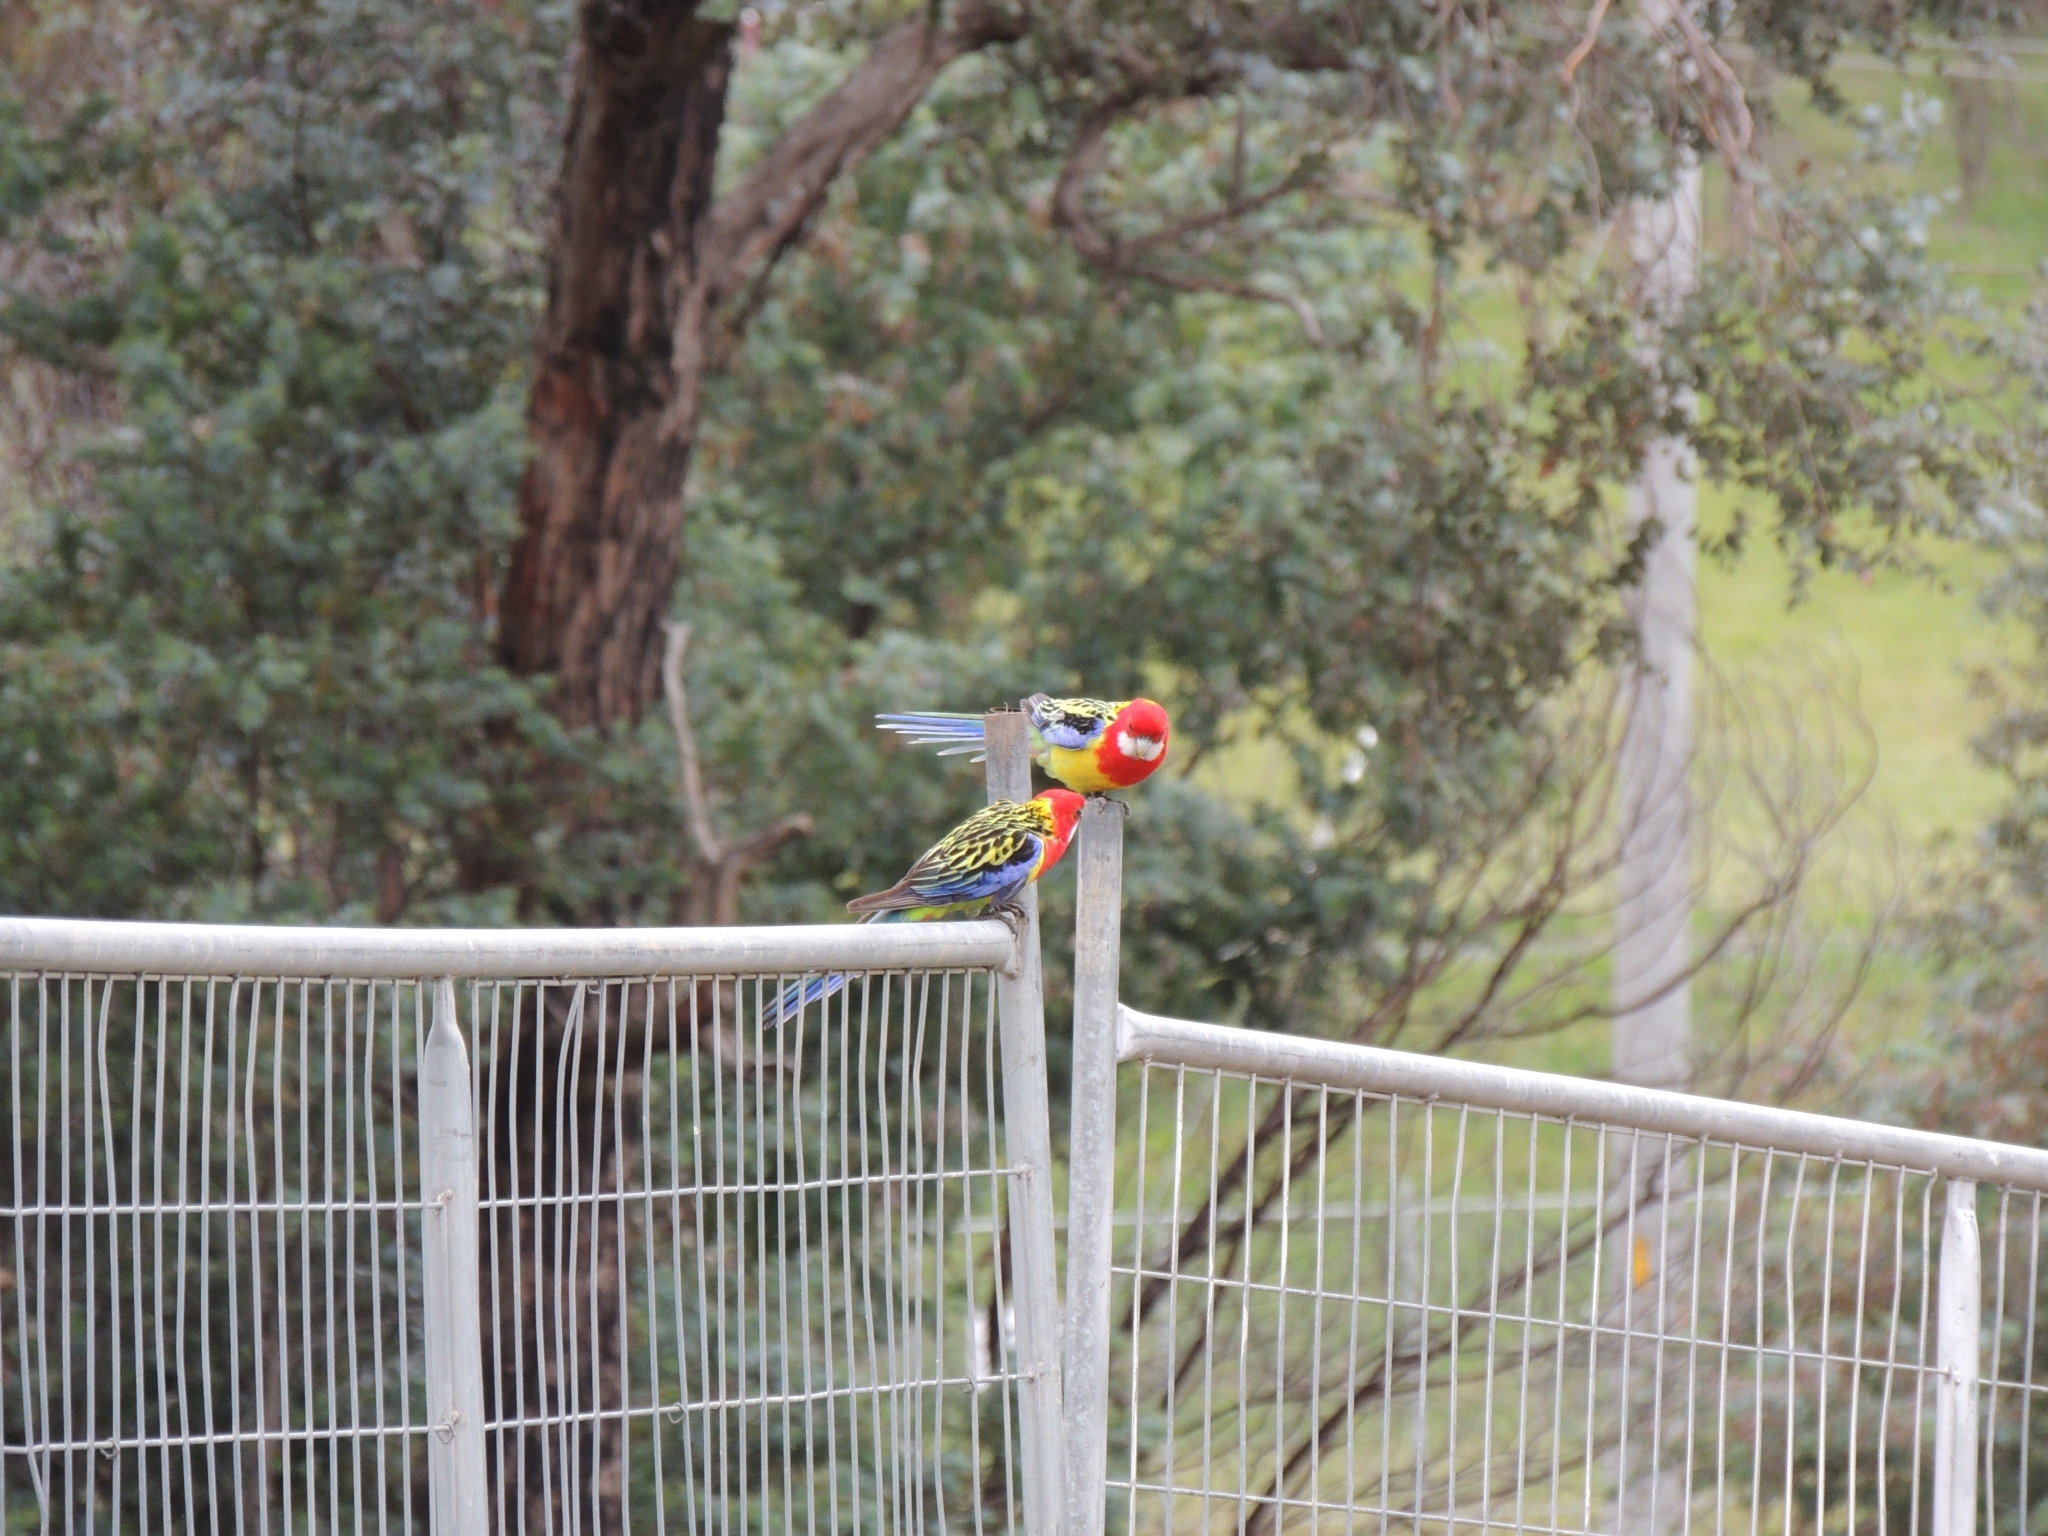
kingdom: Animalia
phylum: Chordata
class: Aves
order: Psittaciformes
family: Psittacidae
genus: Platycercus
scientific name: Platycercus eximius
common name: Eastern rosella
